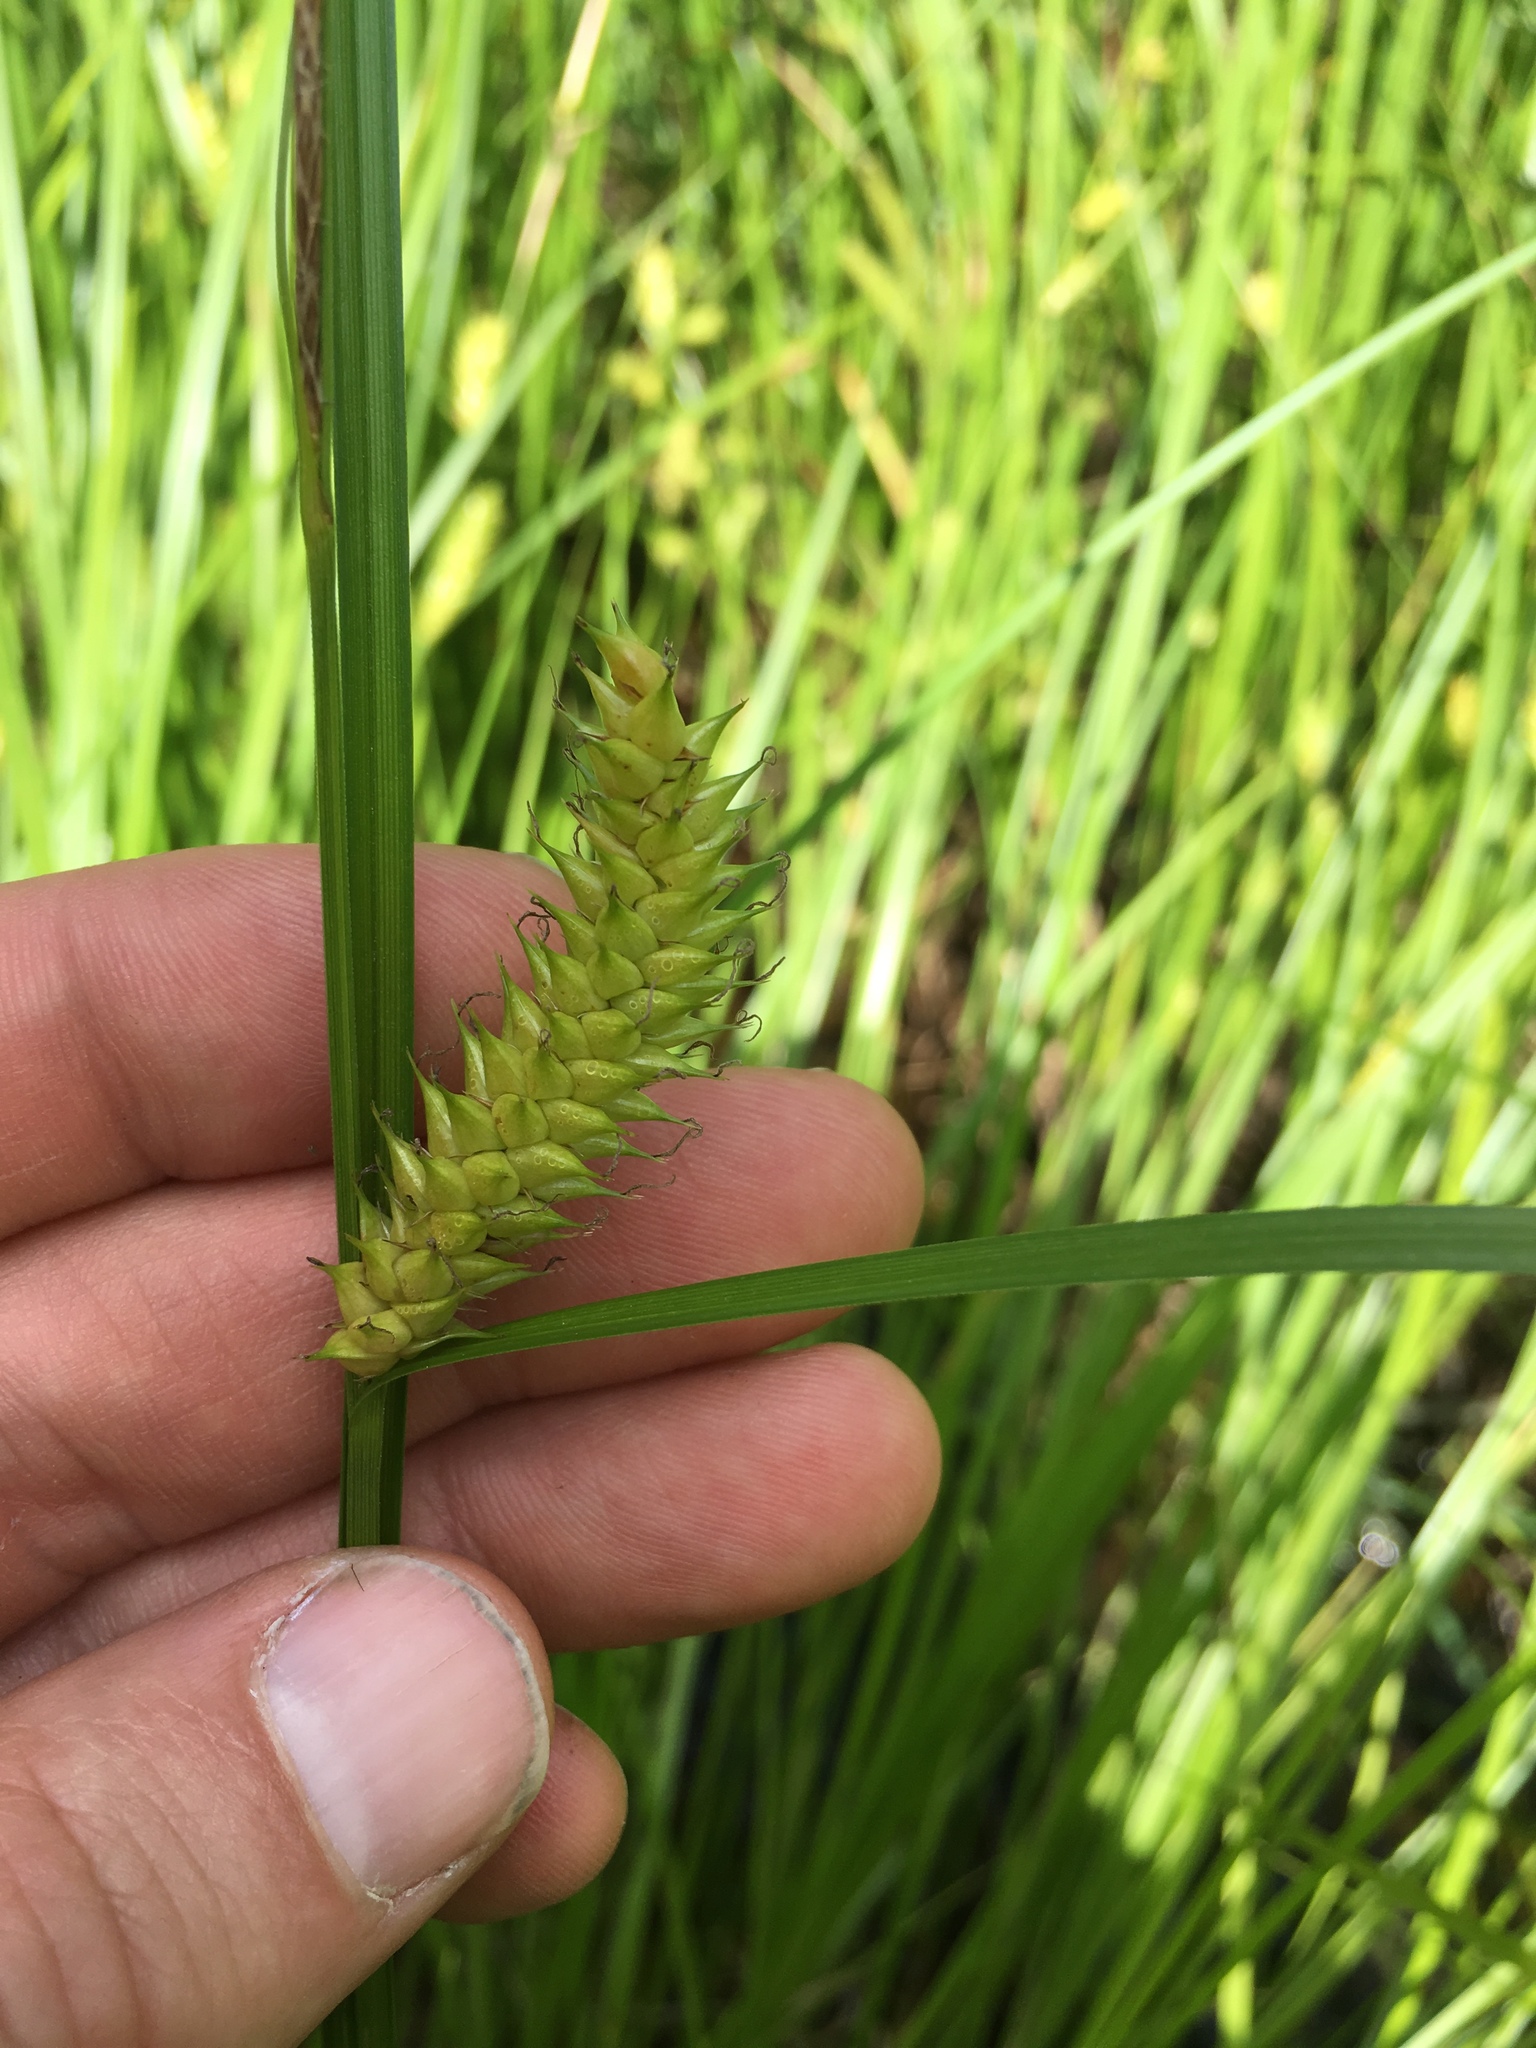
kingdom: Plantae
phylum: Tracheophyta
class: Liliopsida
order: Poales
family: Cyperaceae
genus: Carex
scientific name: Carex vesicaria
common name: Bladder-sedge
